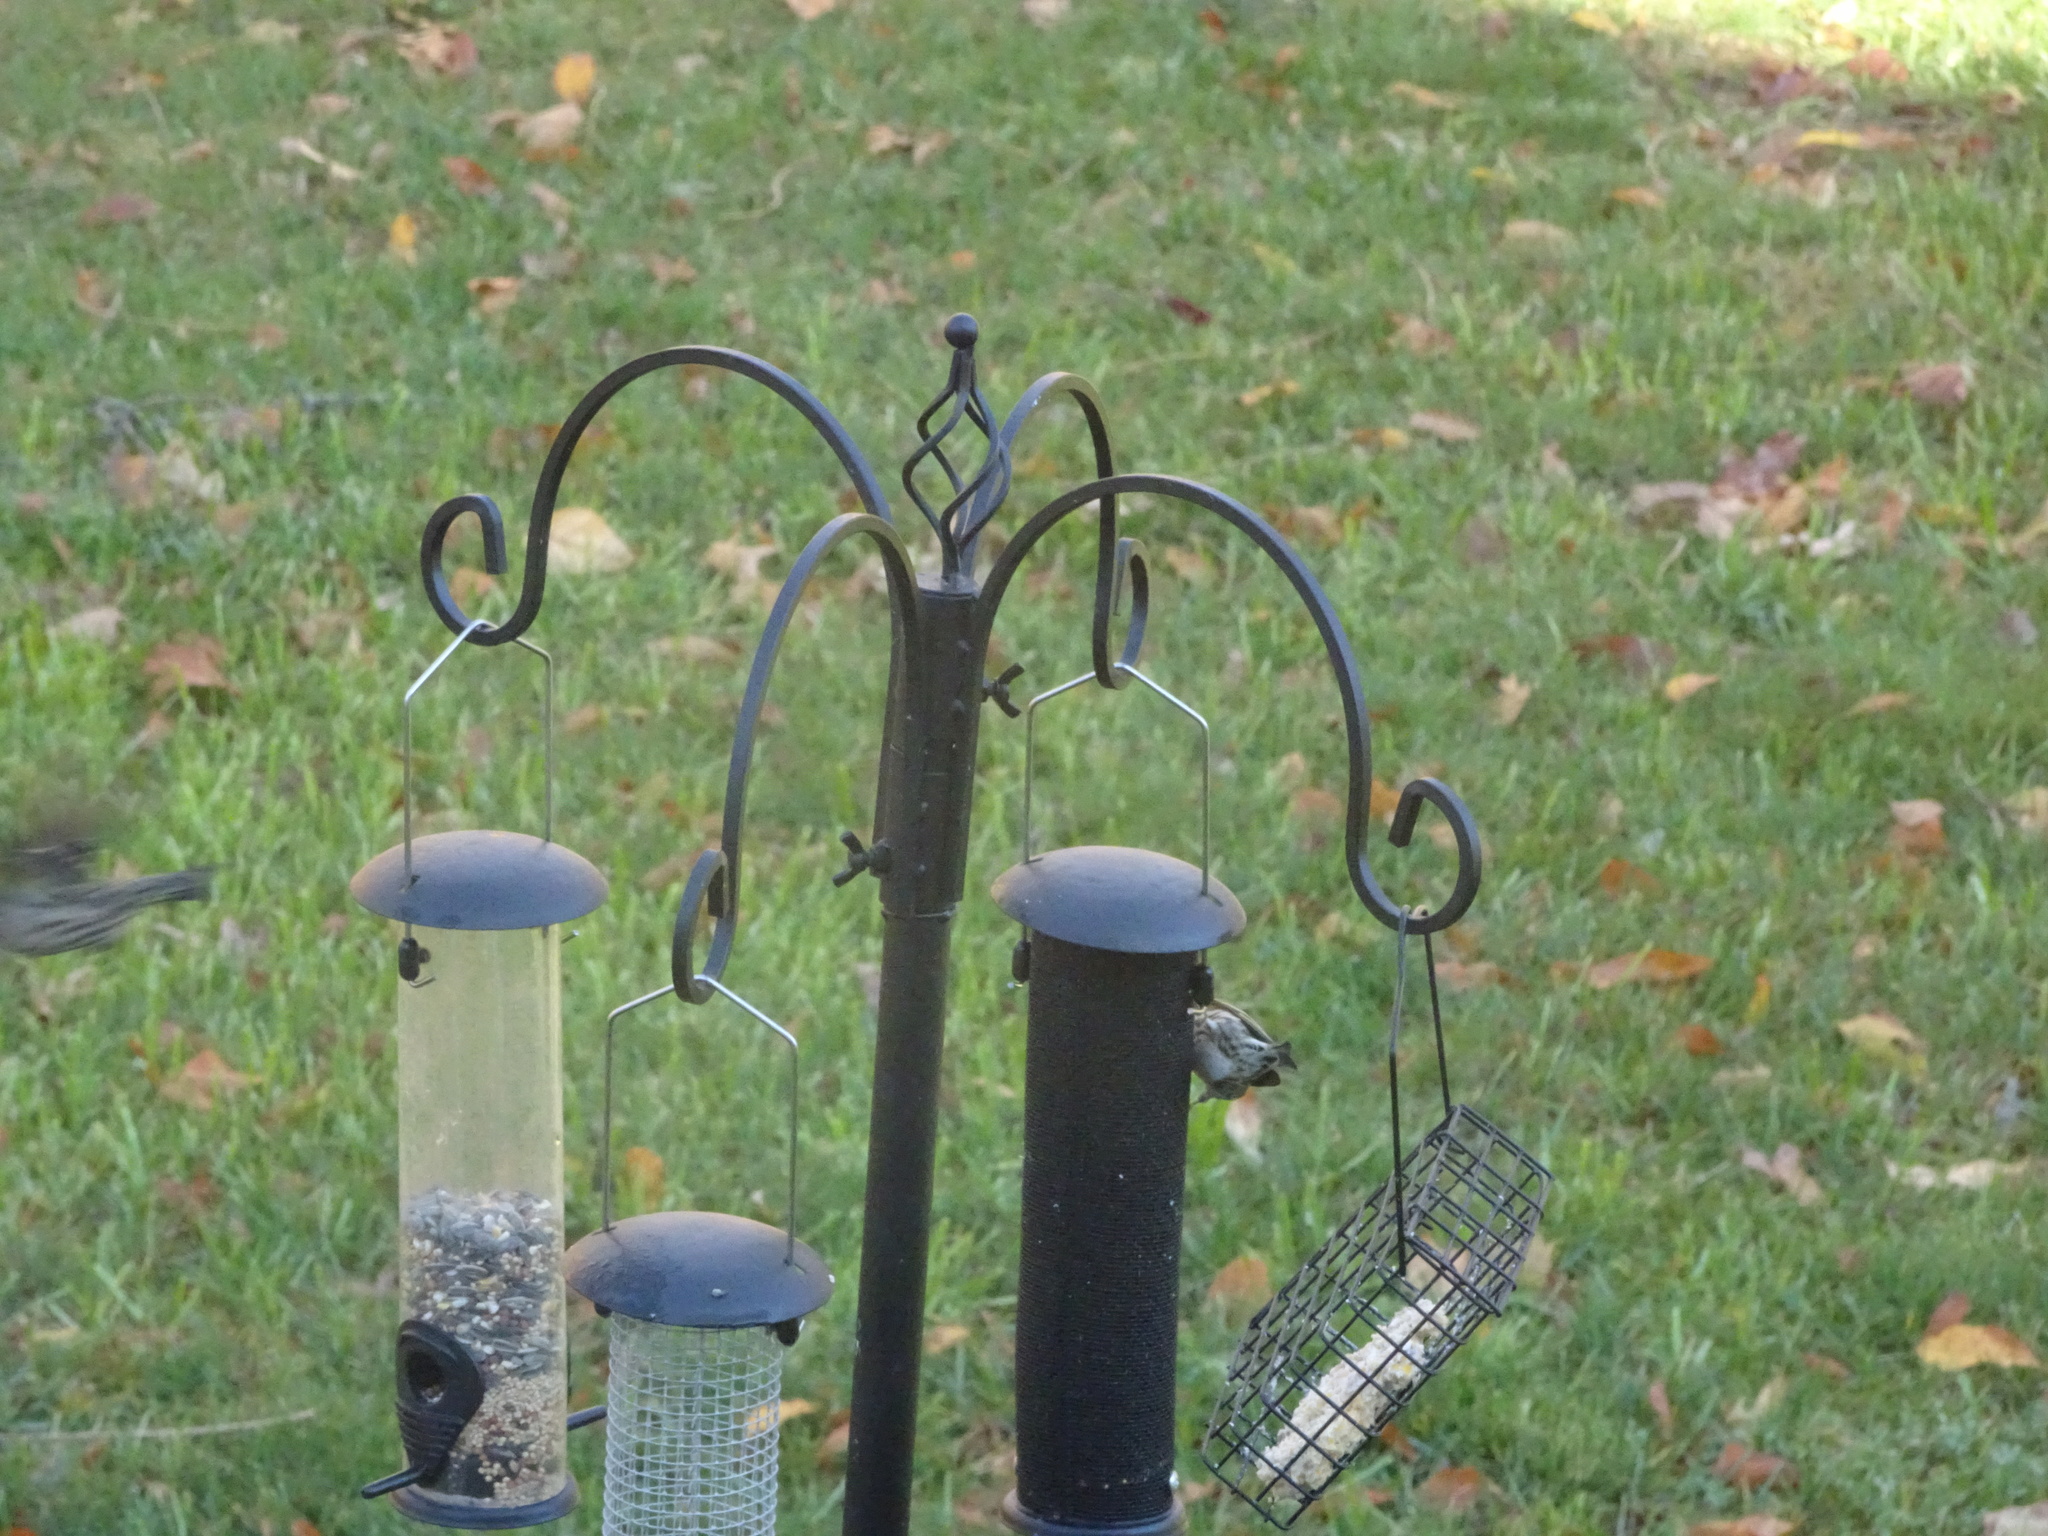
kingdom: Animalia
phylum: Chordata
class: Aves
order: Passeriformes
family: Fringillidae
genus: Spinus
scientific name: Spinus pinus
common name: Pine siskin
